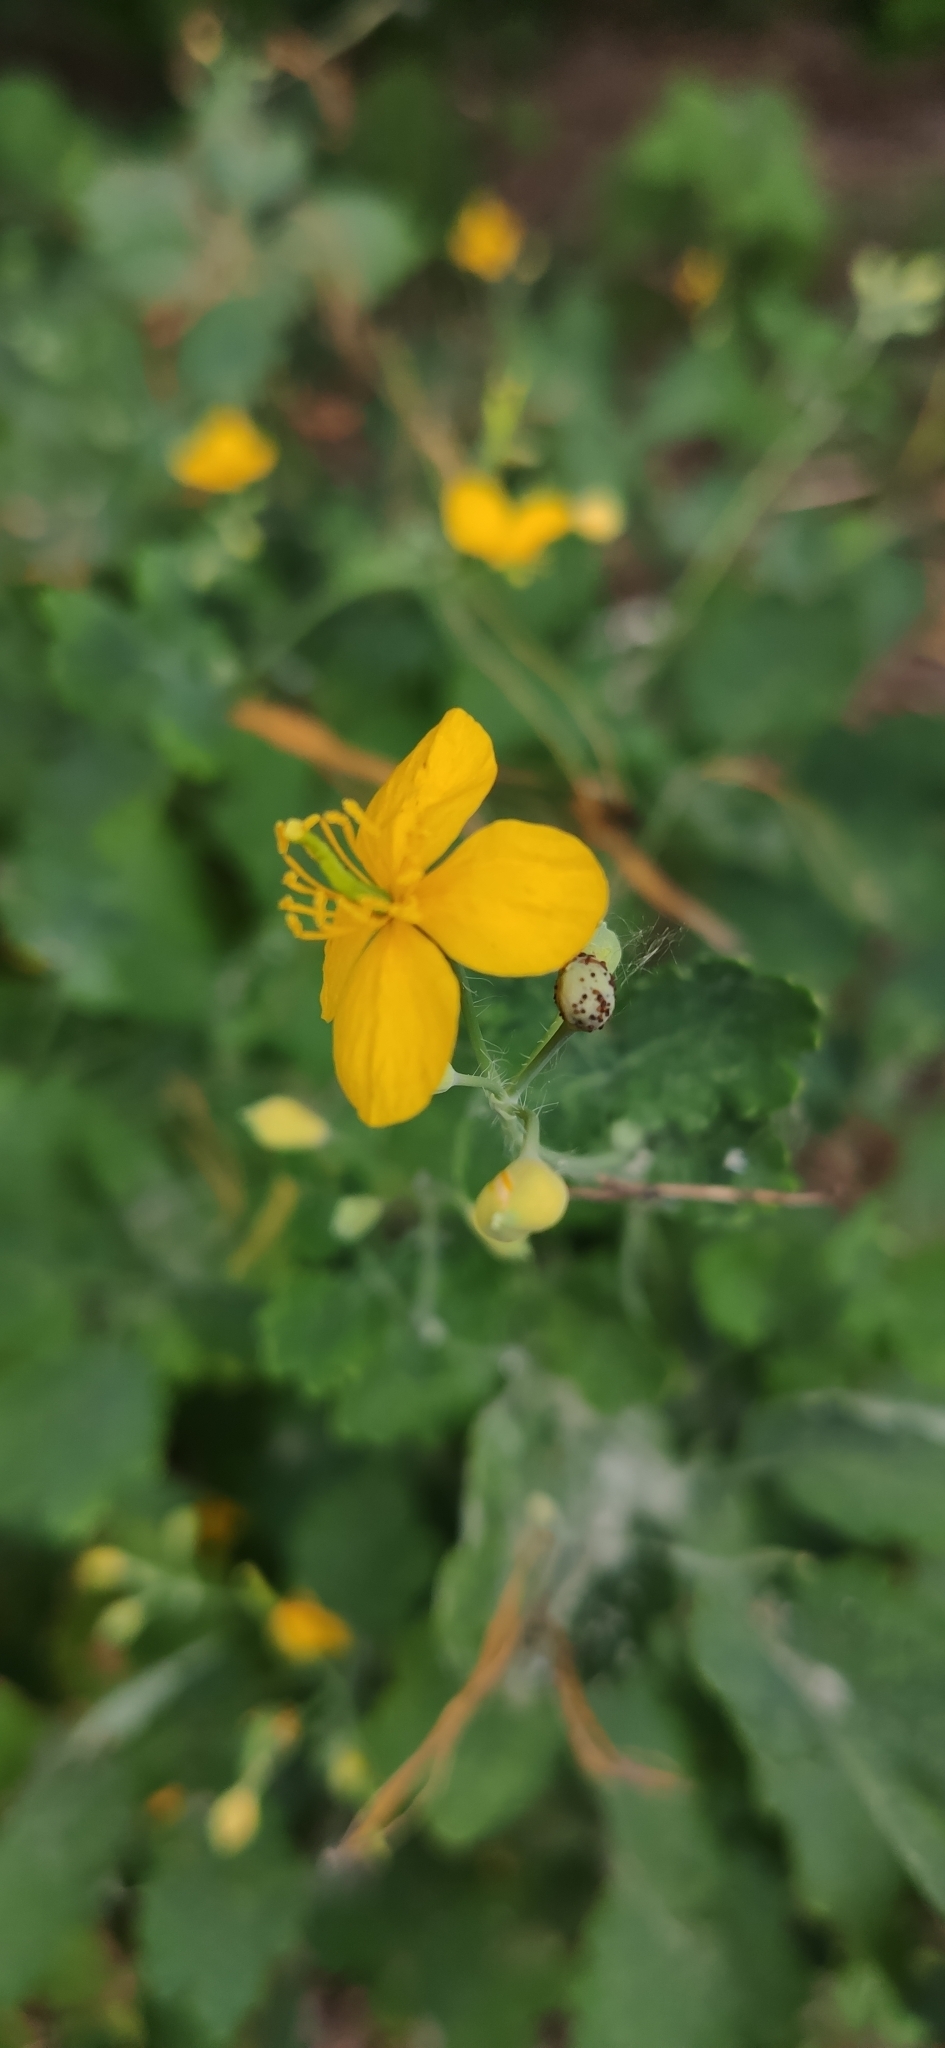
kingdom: Plantae
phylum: Tracheophyta
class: Magnoliopsida
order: Ranunculales
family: Papaveraceae
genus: Chelidonium
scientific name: Chelidonium majus
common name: Greater celandine
